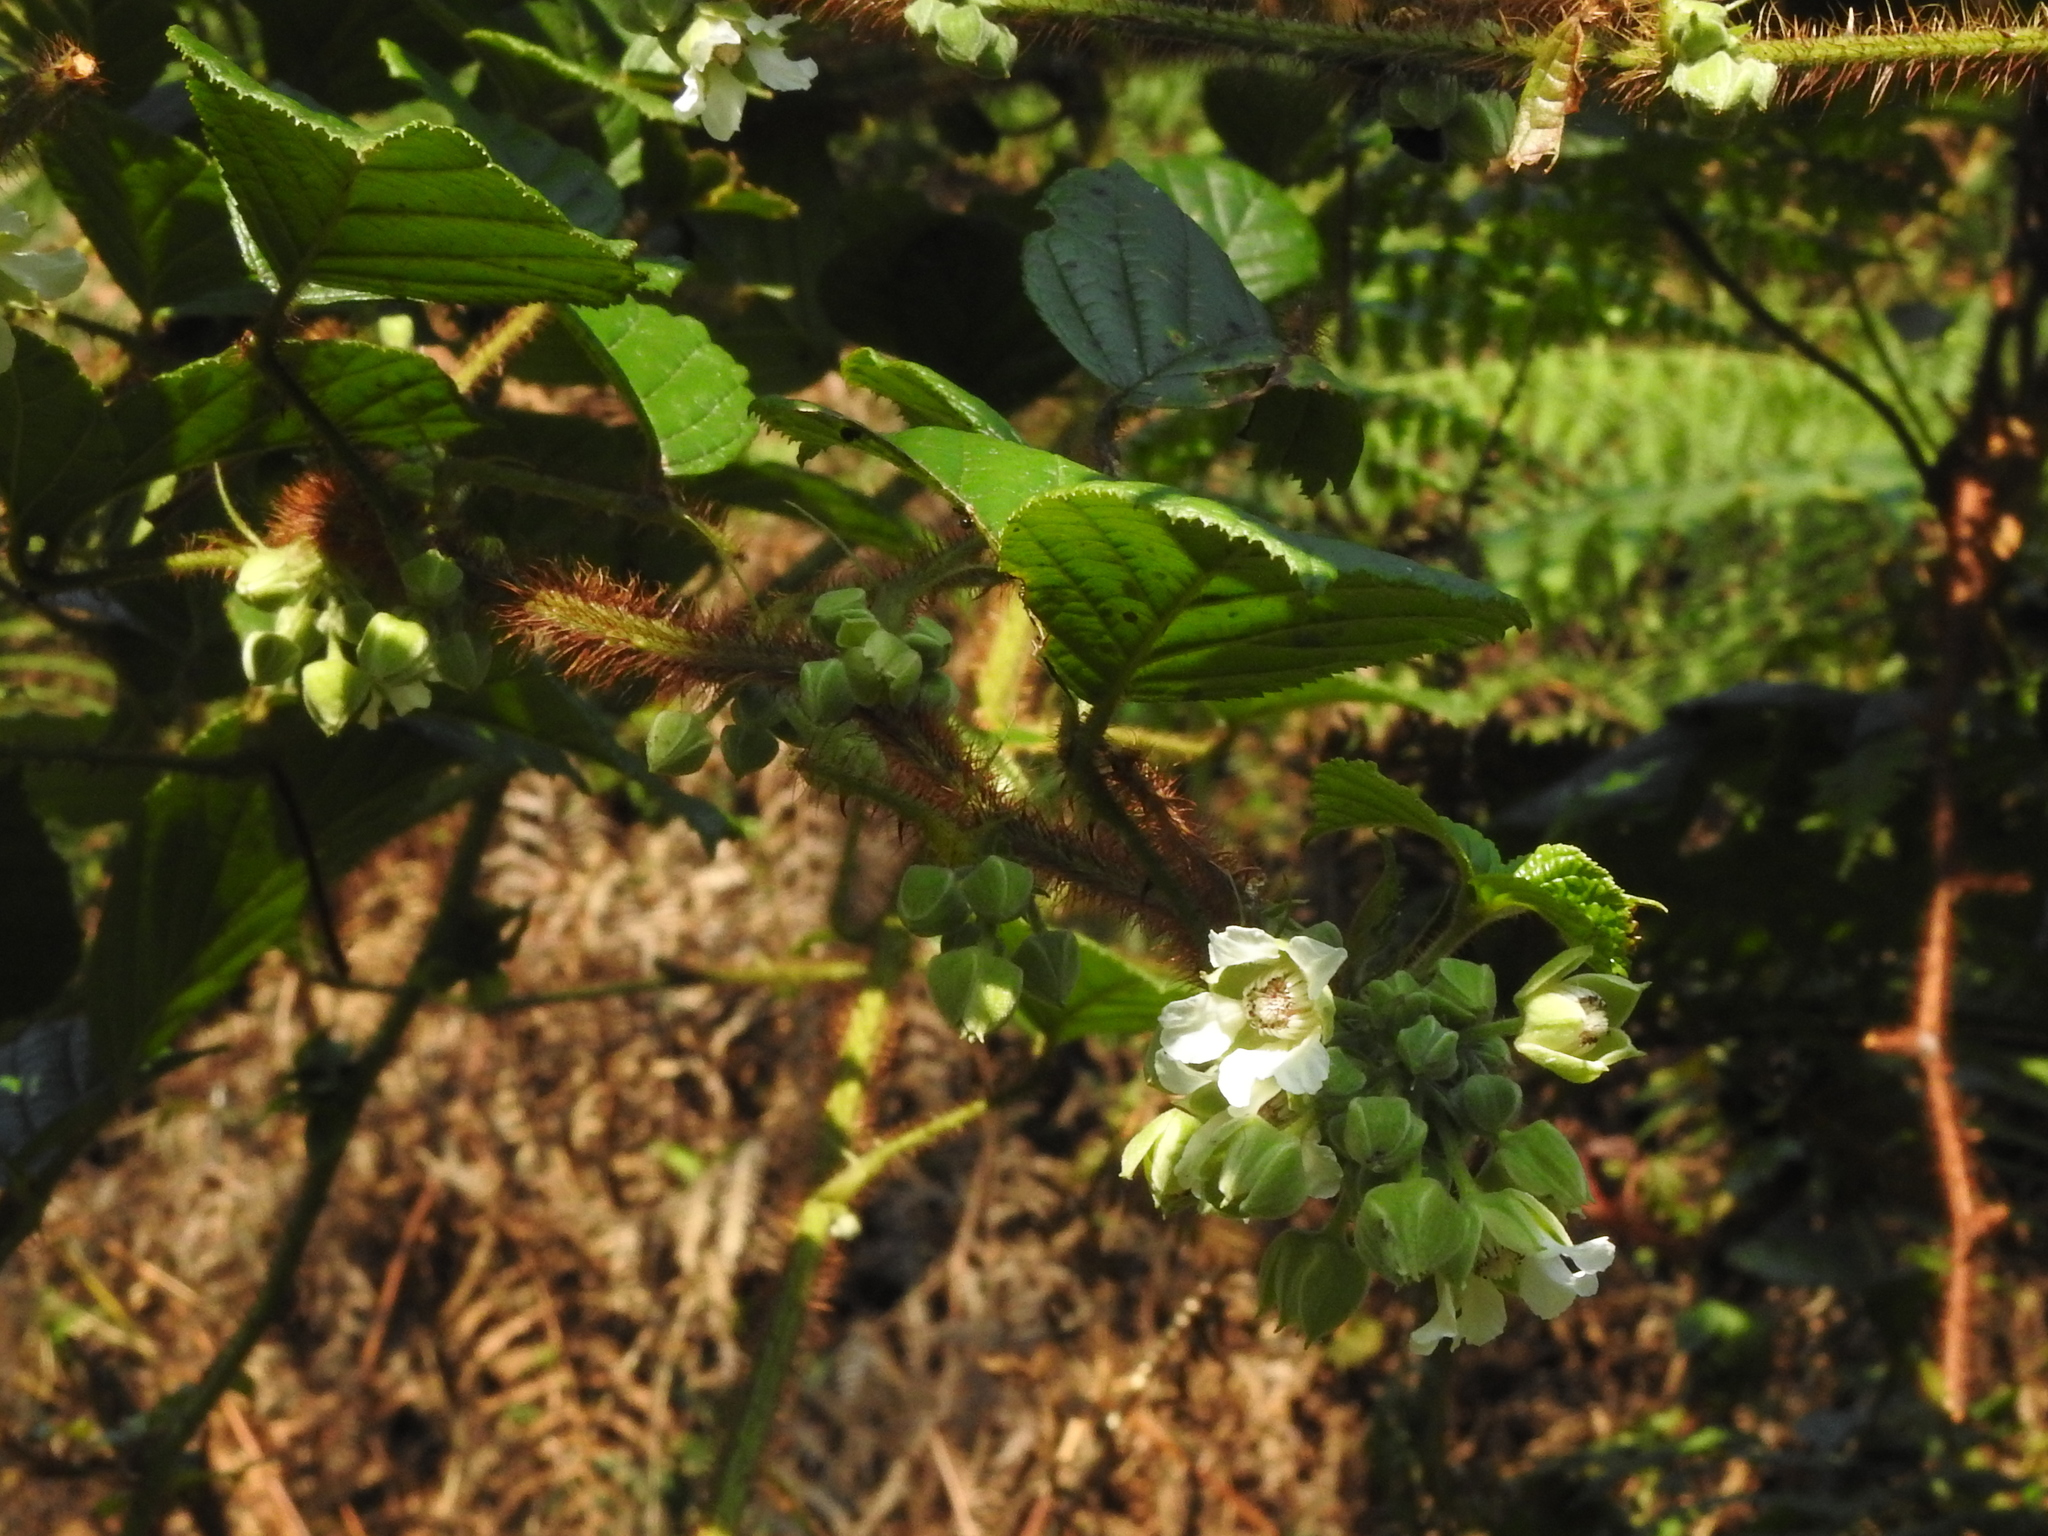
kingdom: Plantae
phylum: Tracheophyta
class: Magnoliopsida
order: Rosales
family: Rosaceae
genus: Rubus
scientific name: Rubus ellipticus
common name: Cheeseberry
